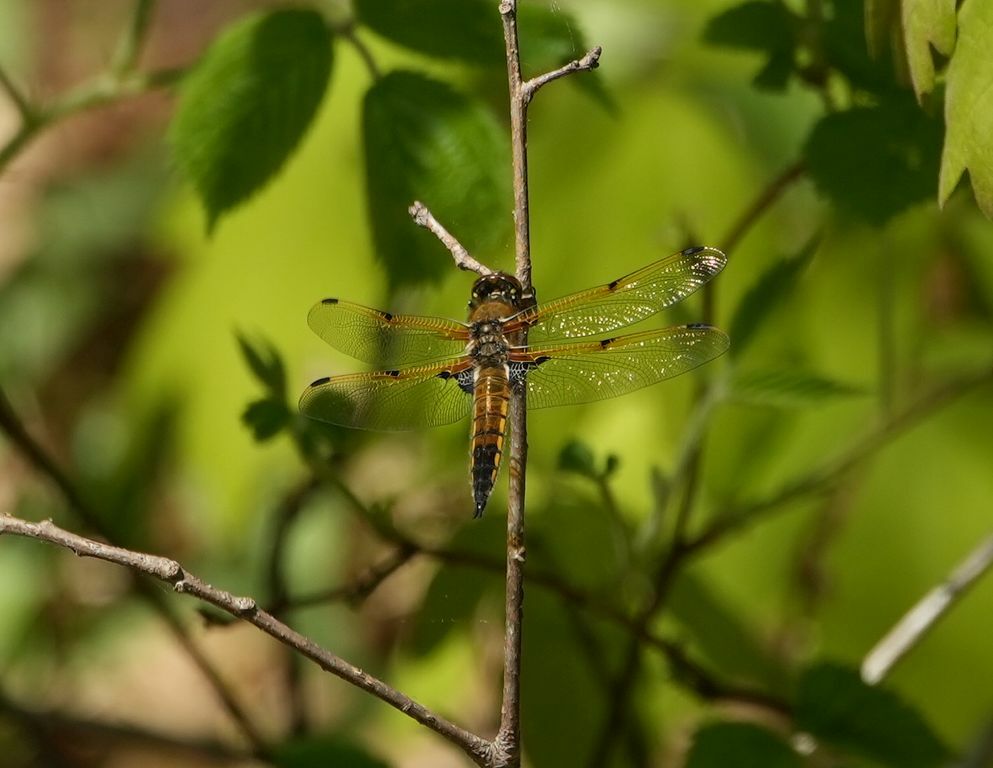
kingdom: Animalia
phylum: Arthropoda
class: Insecta
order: Odonata
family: Libellulidae
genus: Libellula
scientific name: Libellula quadrimaculata
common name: Four-spotted chaser
